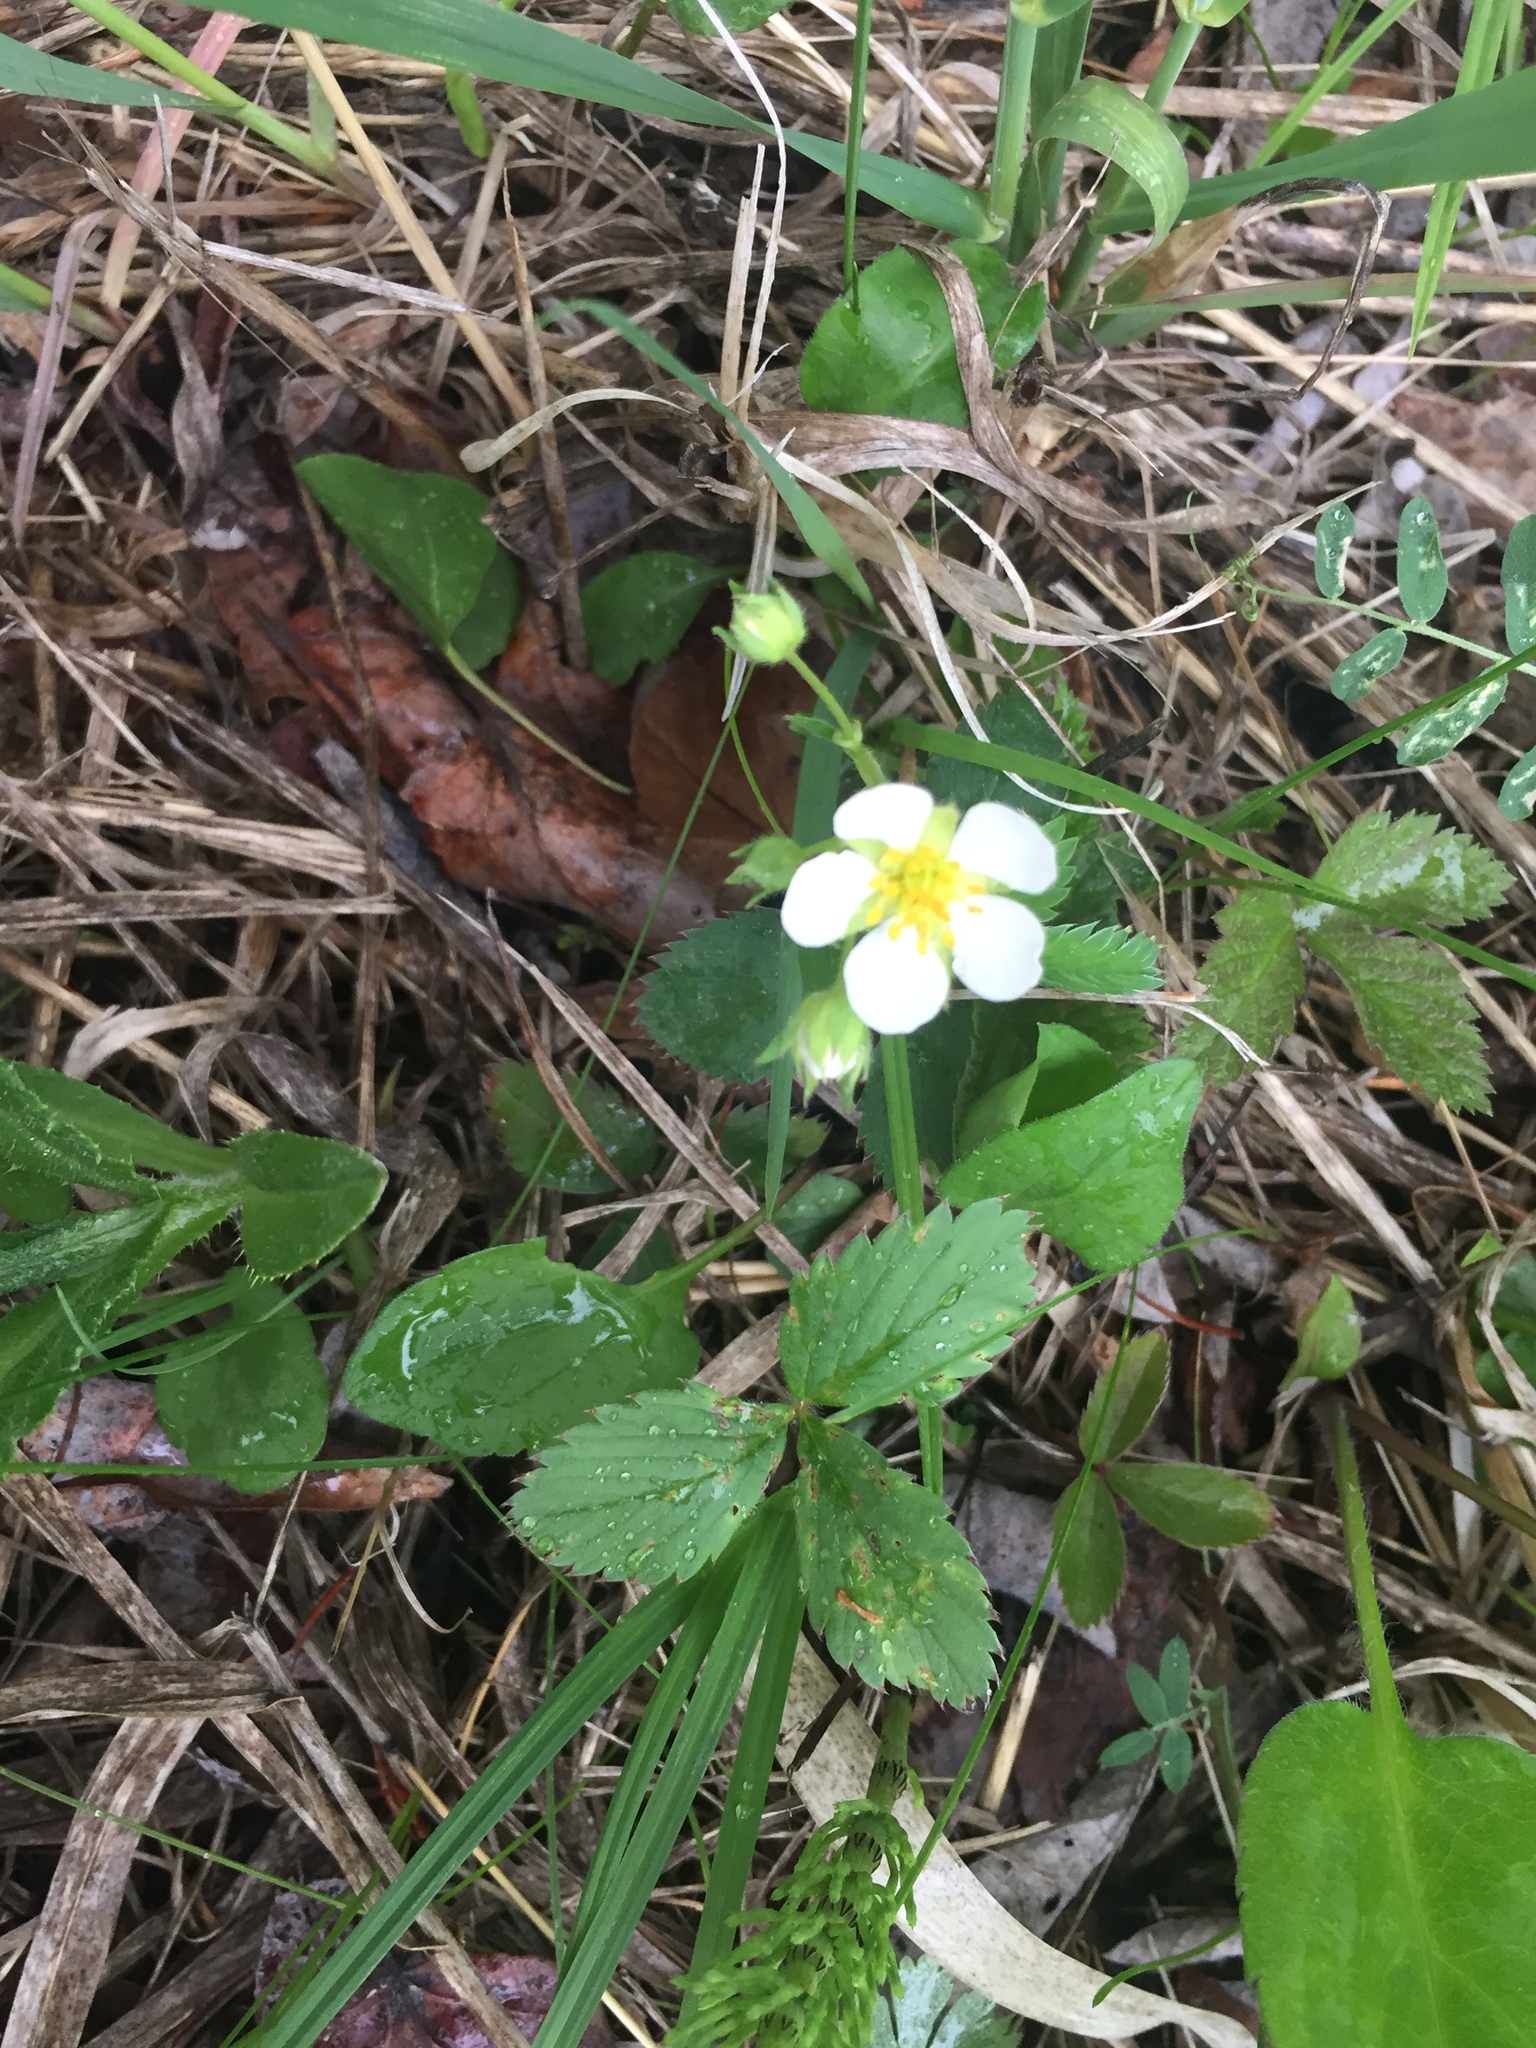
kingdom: Plantae
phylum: Tracheophyta
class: Magnoliopsida
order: Rosales
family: Rosaceae
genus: Fragaria
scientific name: Fragaria virginiana
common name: Thickleaved wild strawberry
